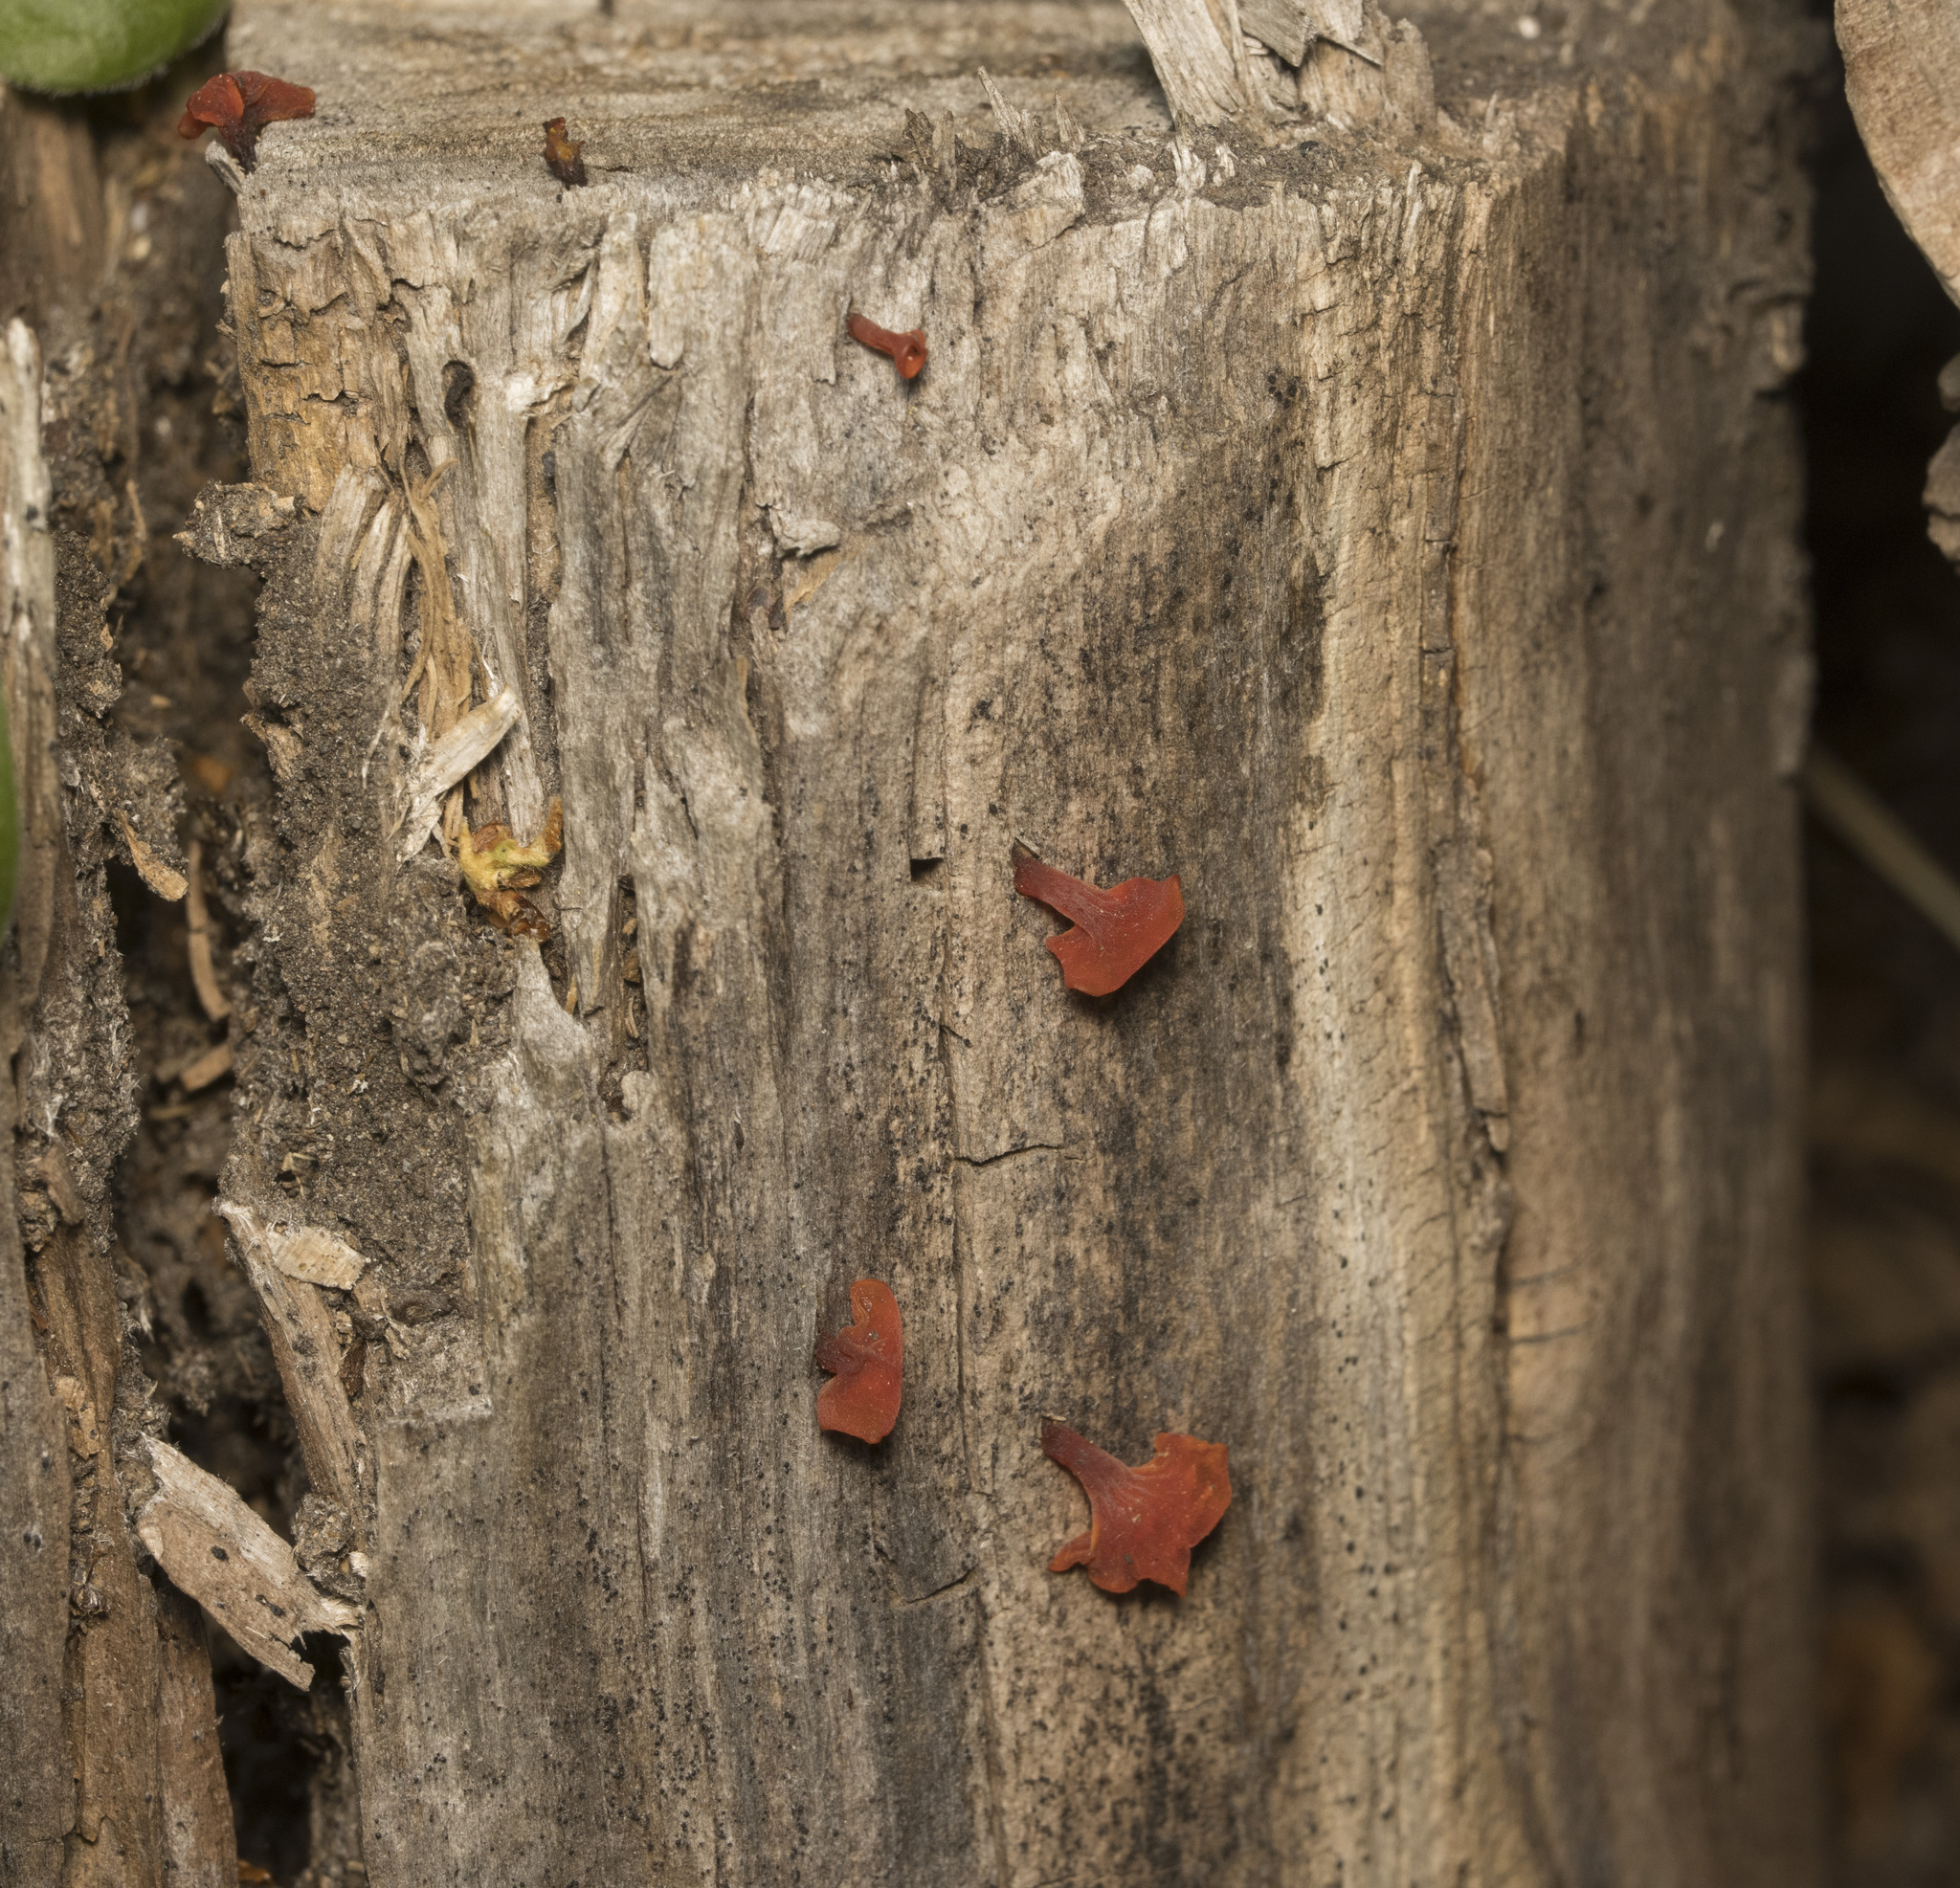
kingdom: Fungi
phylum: Basidiomycota
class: Dacrymycetes
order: Dacrymycetales
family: Dacrymycetaceae
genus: Guepiniopsis
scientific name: Guepiniopsis alpina
